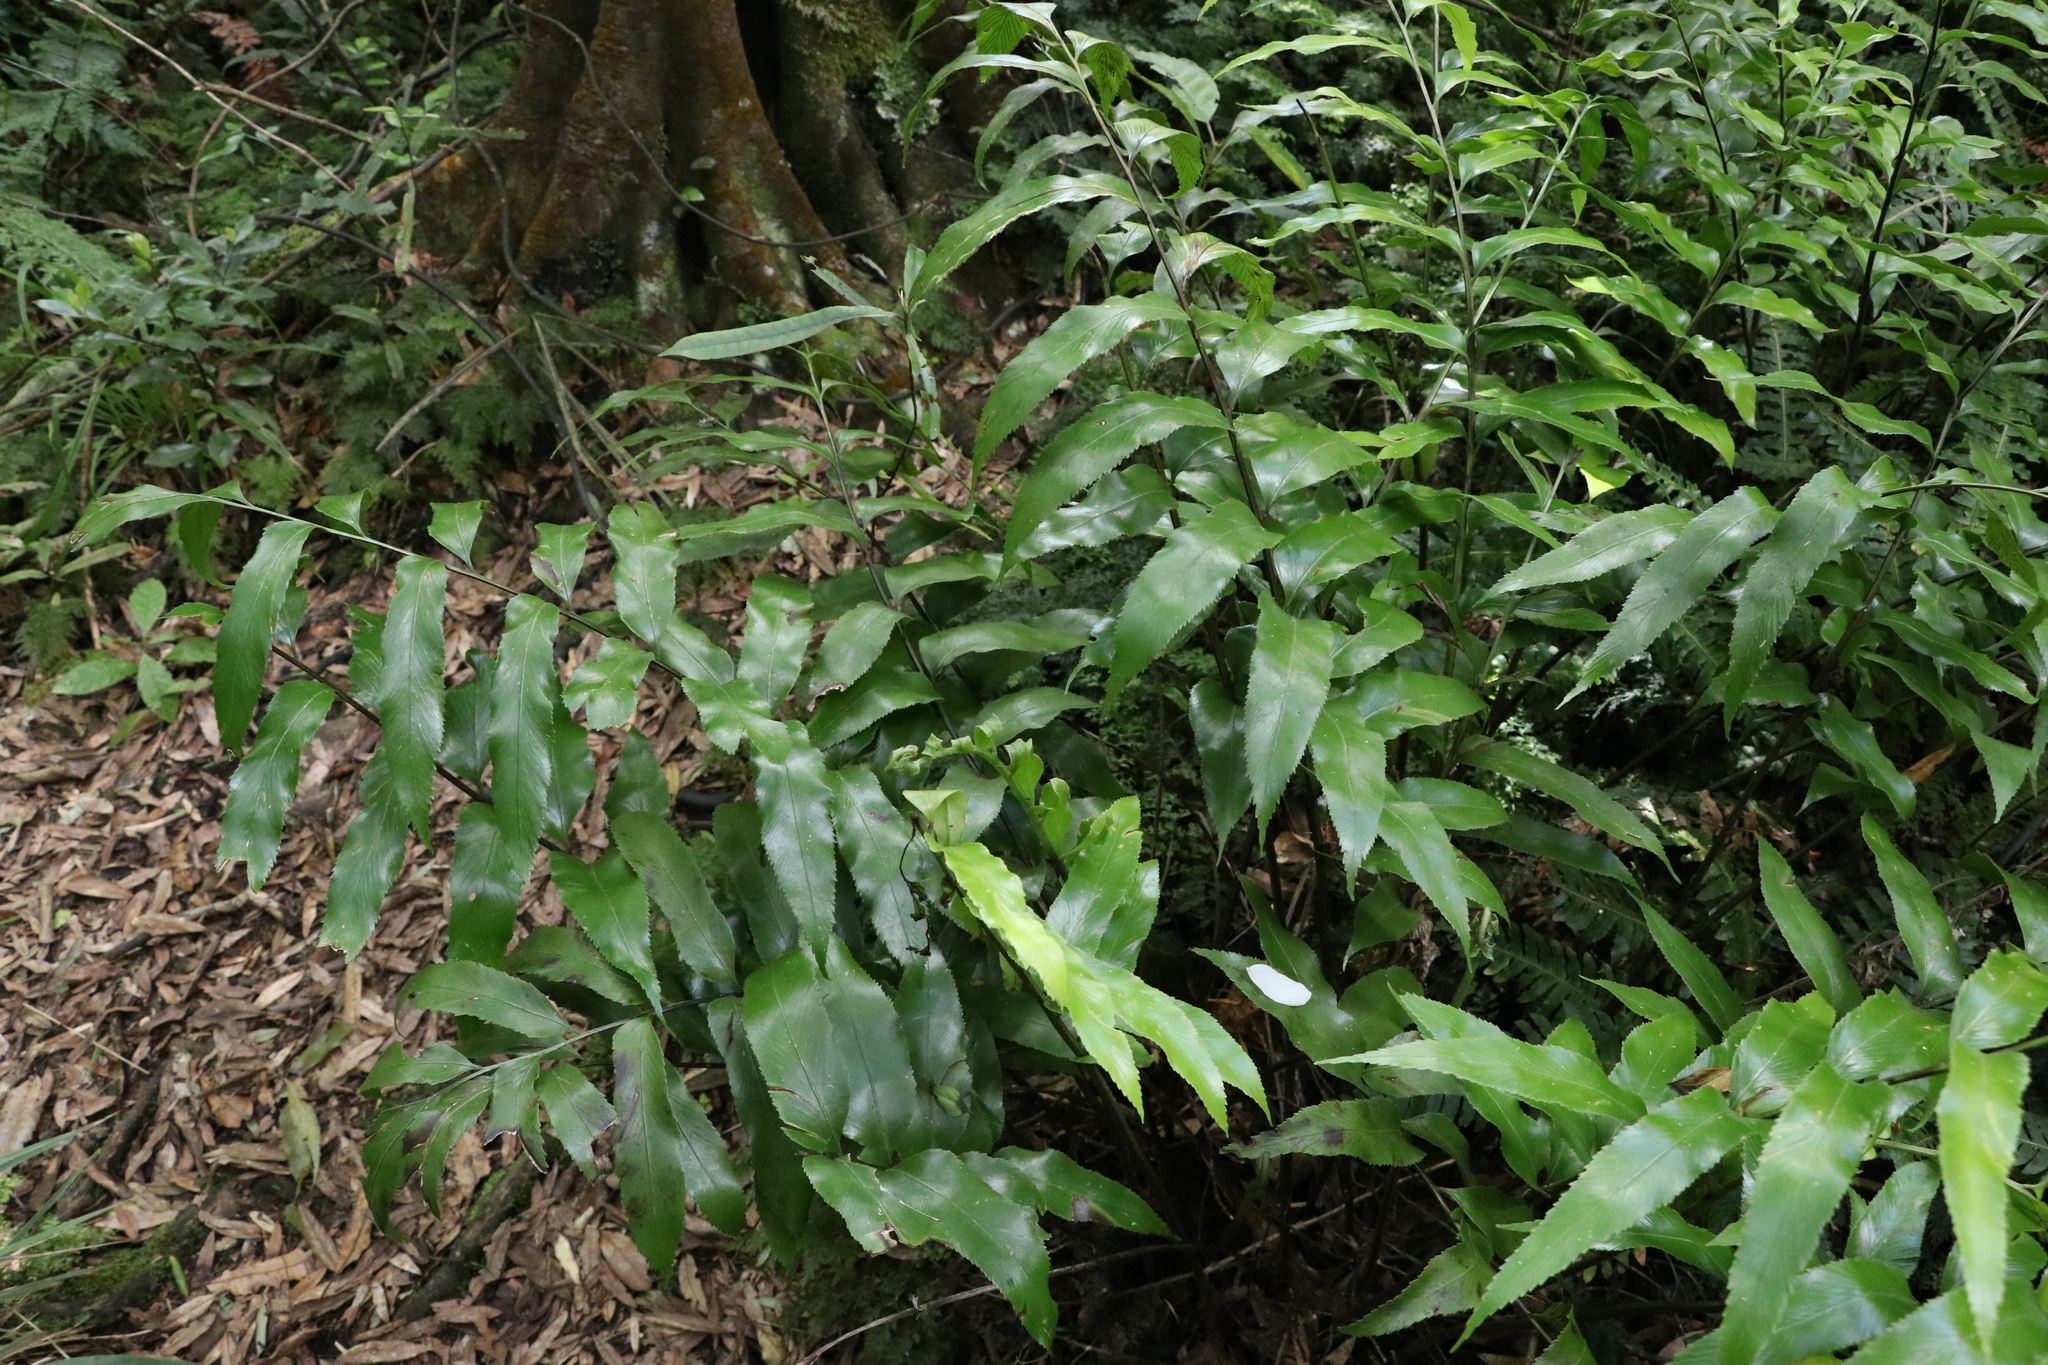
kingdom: Plantae
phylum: Tracheophyta
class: Polypodiopsida
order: Polypodiales
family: Aspleniaceae
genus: Asplenium
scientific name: Asplenium oblongifolium
